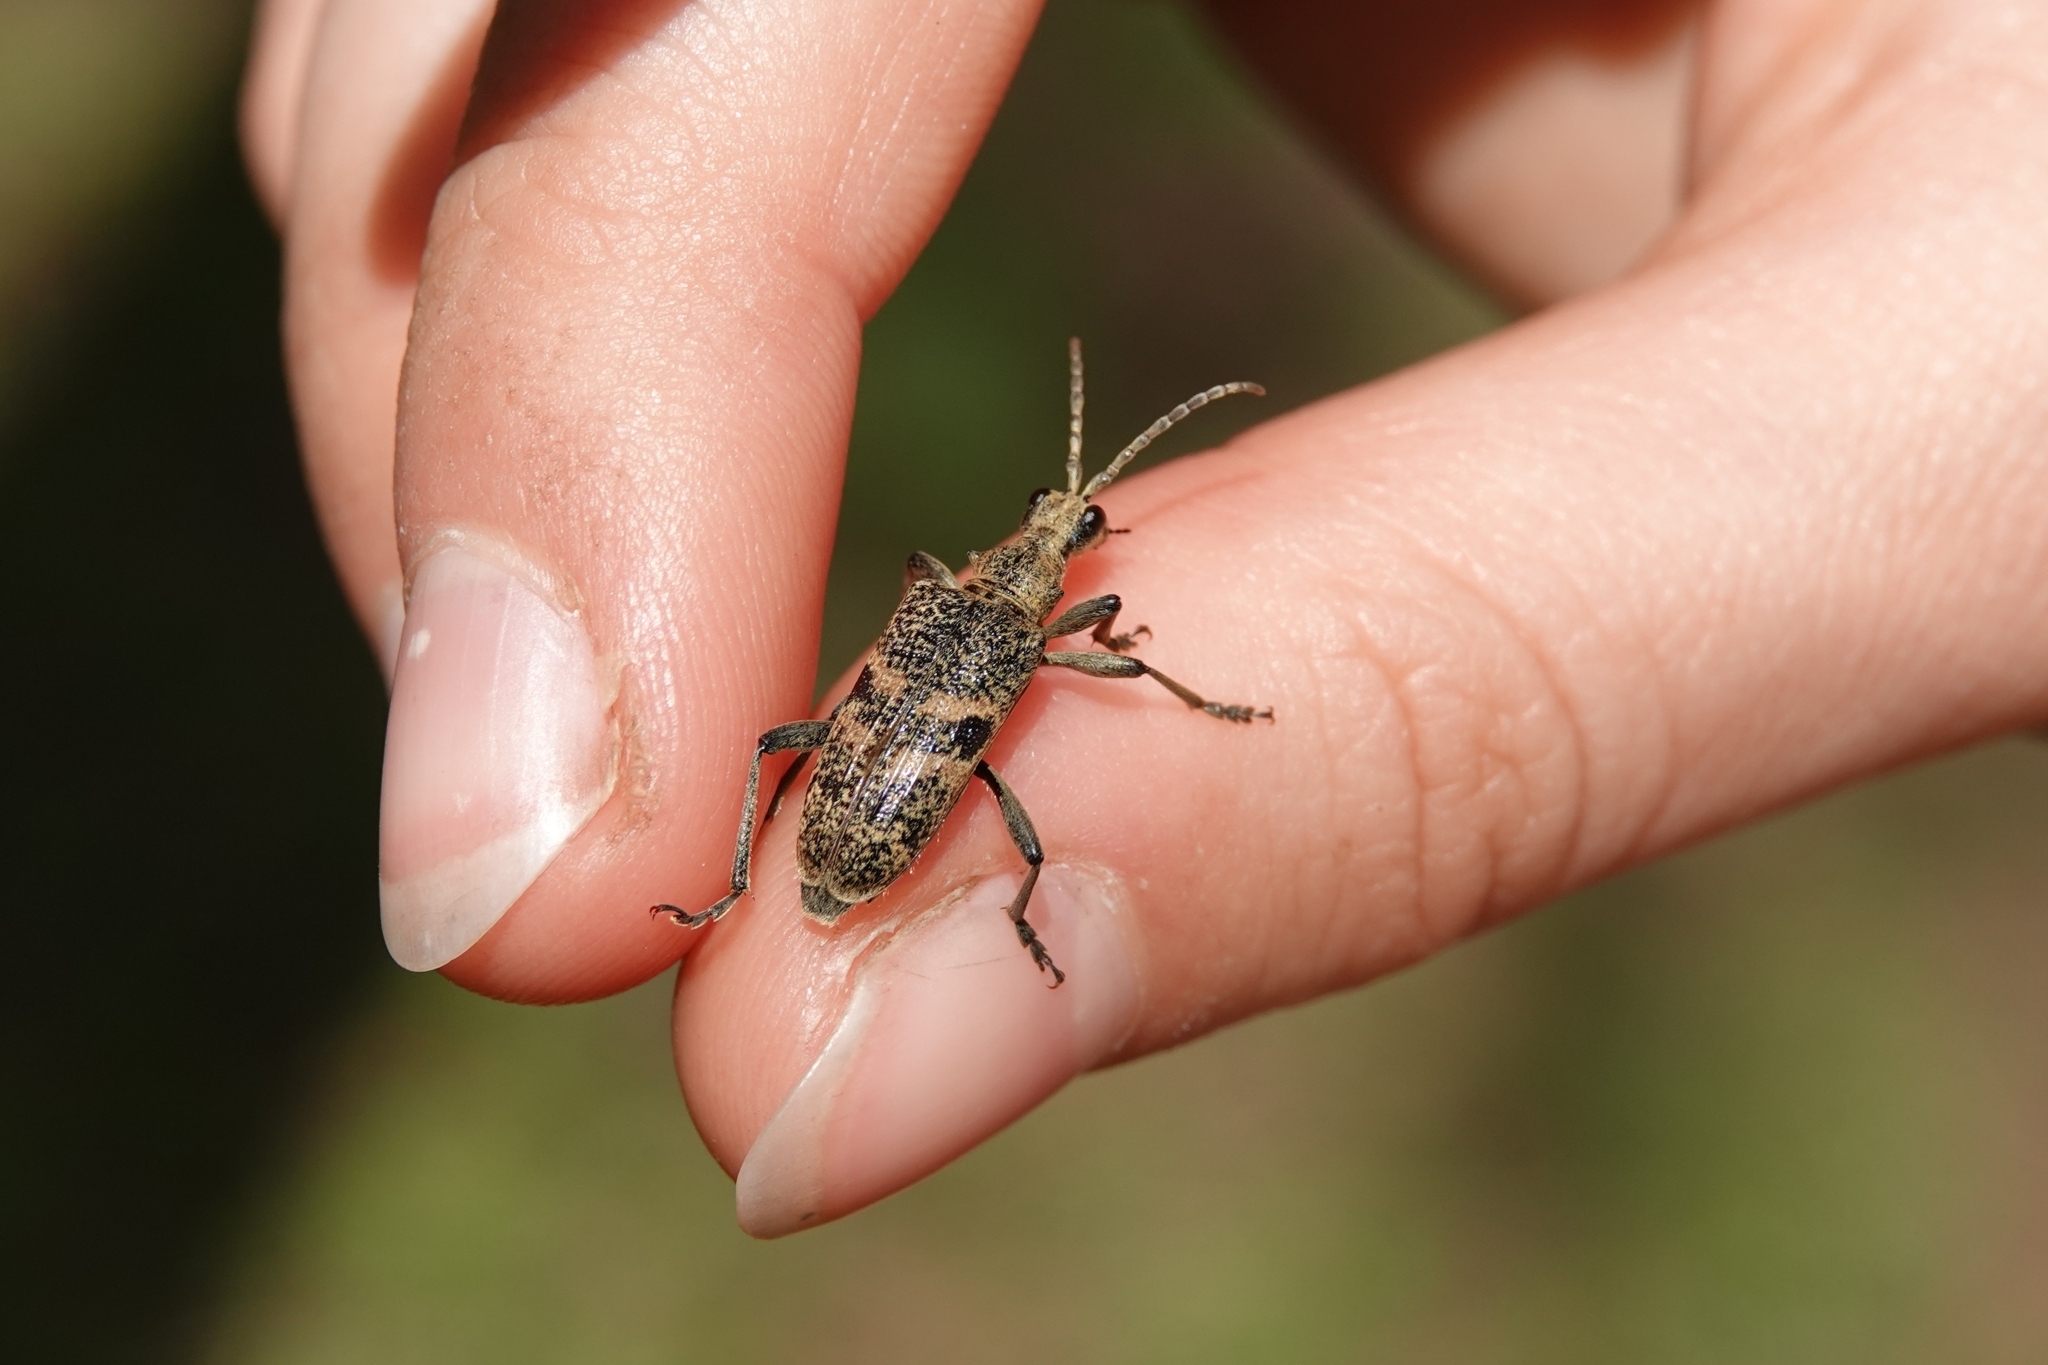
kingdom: Animalia
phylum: Arthropoda
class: Insecta
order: Coleoptera
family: Cerambycidae
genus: Rhagium
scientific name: Rhagium mordax
